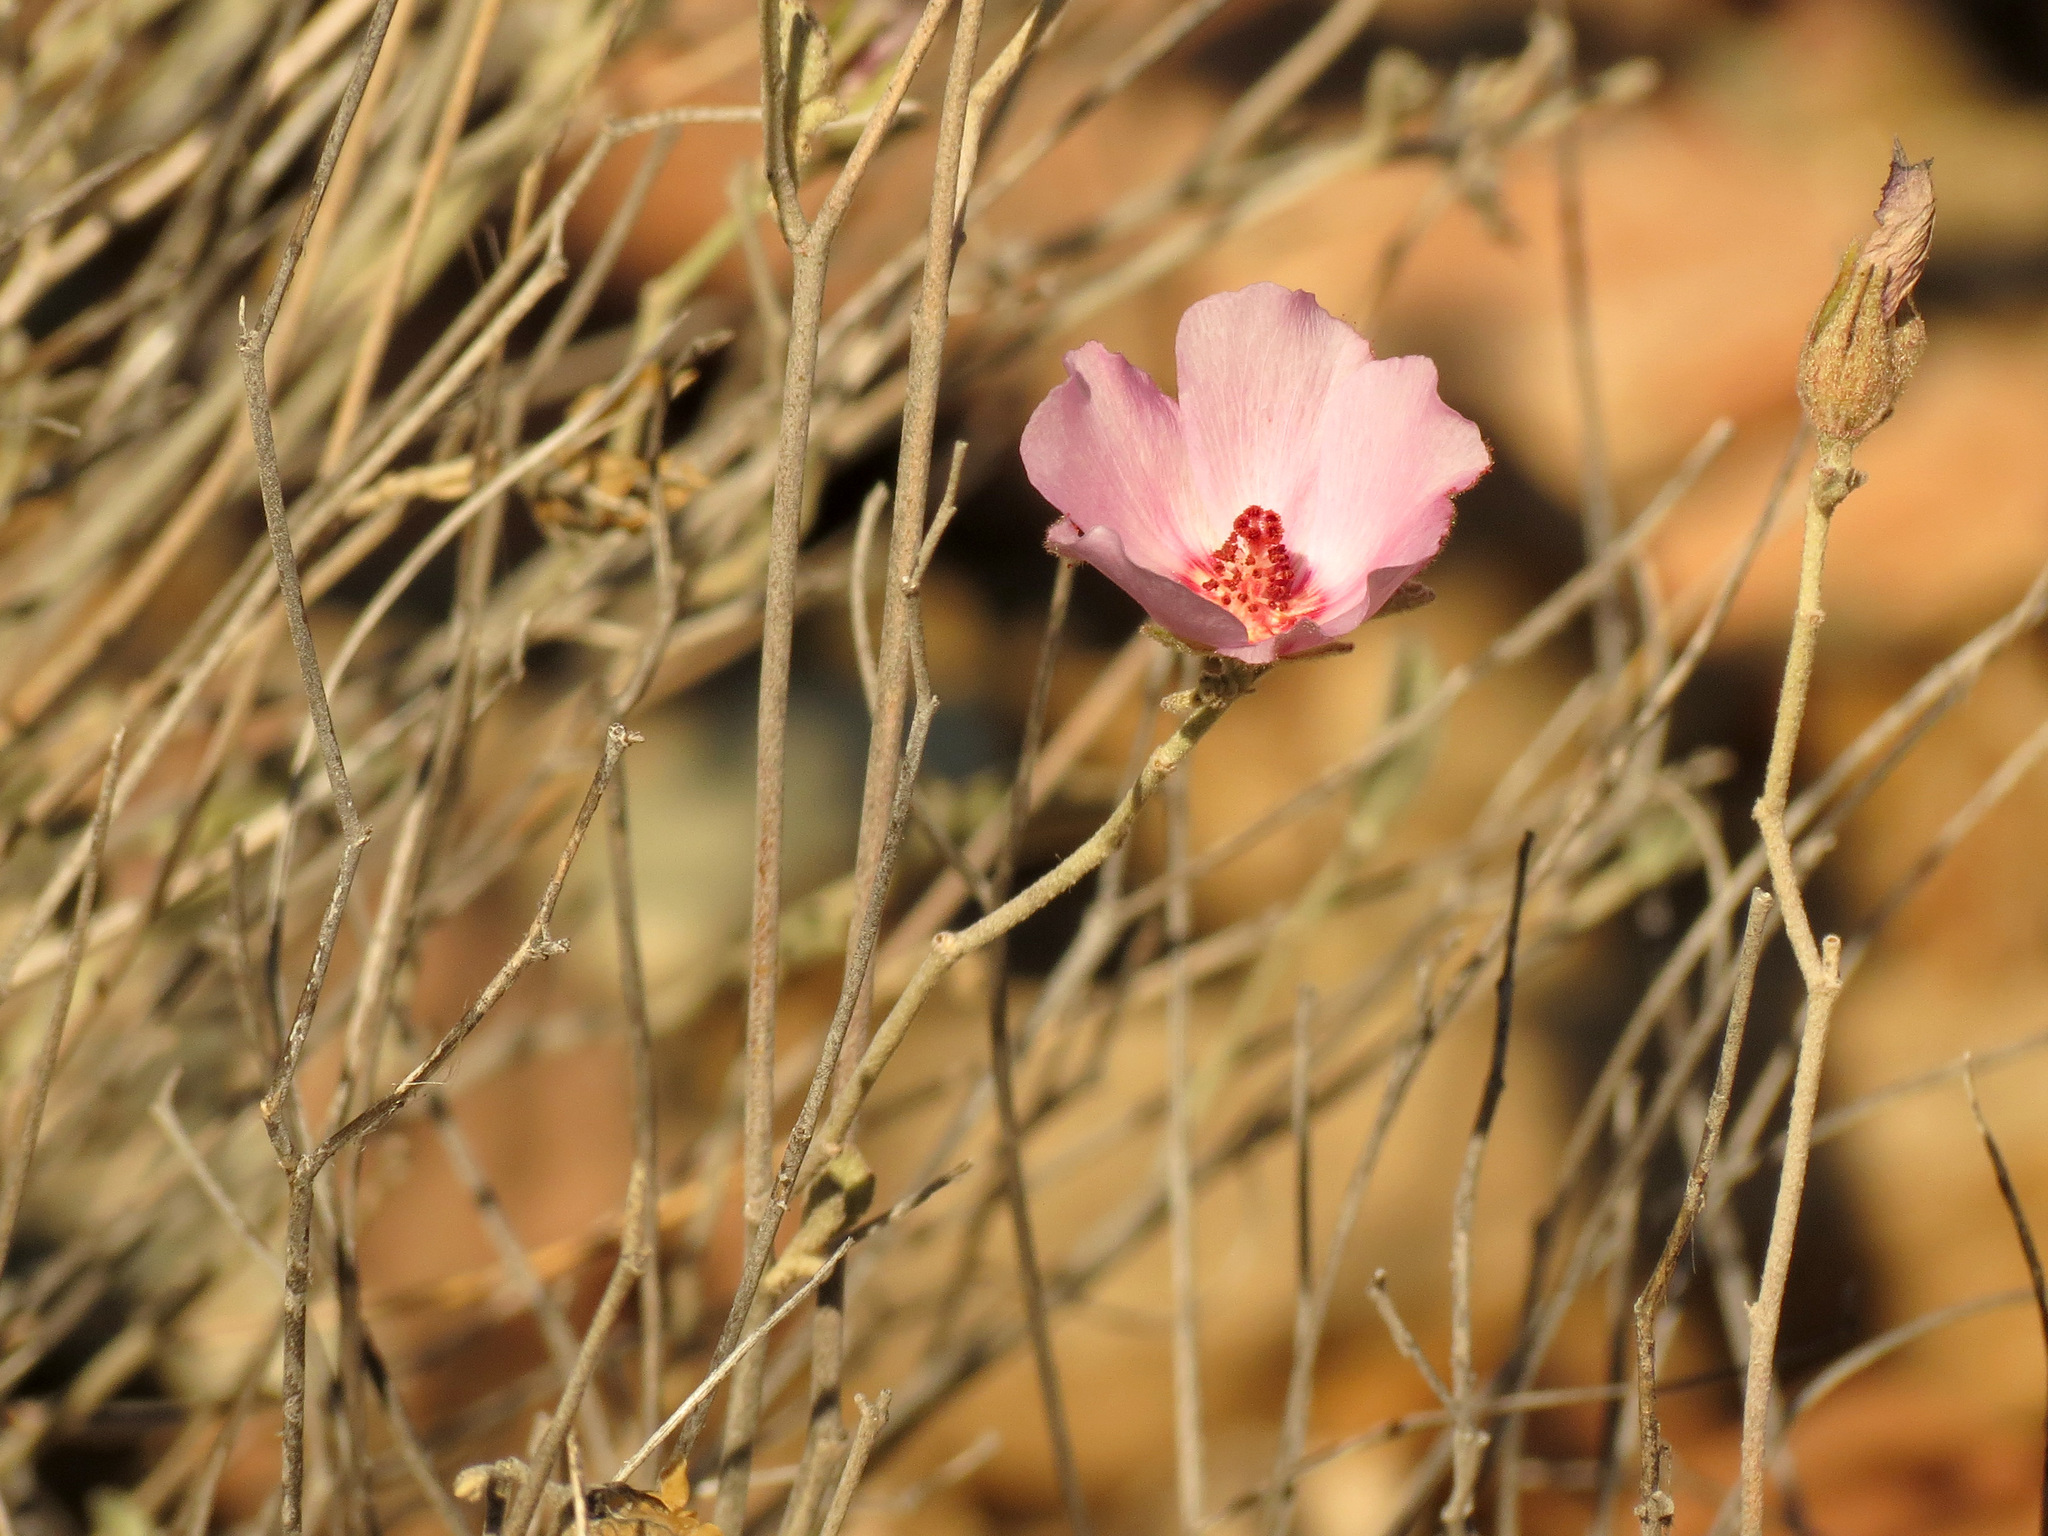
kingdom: Plantae
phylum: Tracheophyta
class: Magnoliopsida
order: Malvales
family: Malvaceae
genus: Hibiscus
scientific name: Hibiscus denudatus
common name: Paleface
